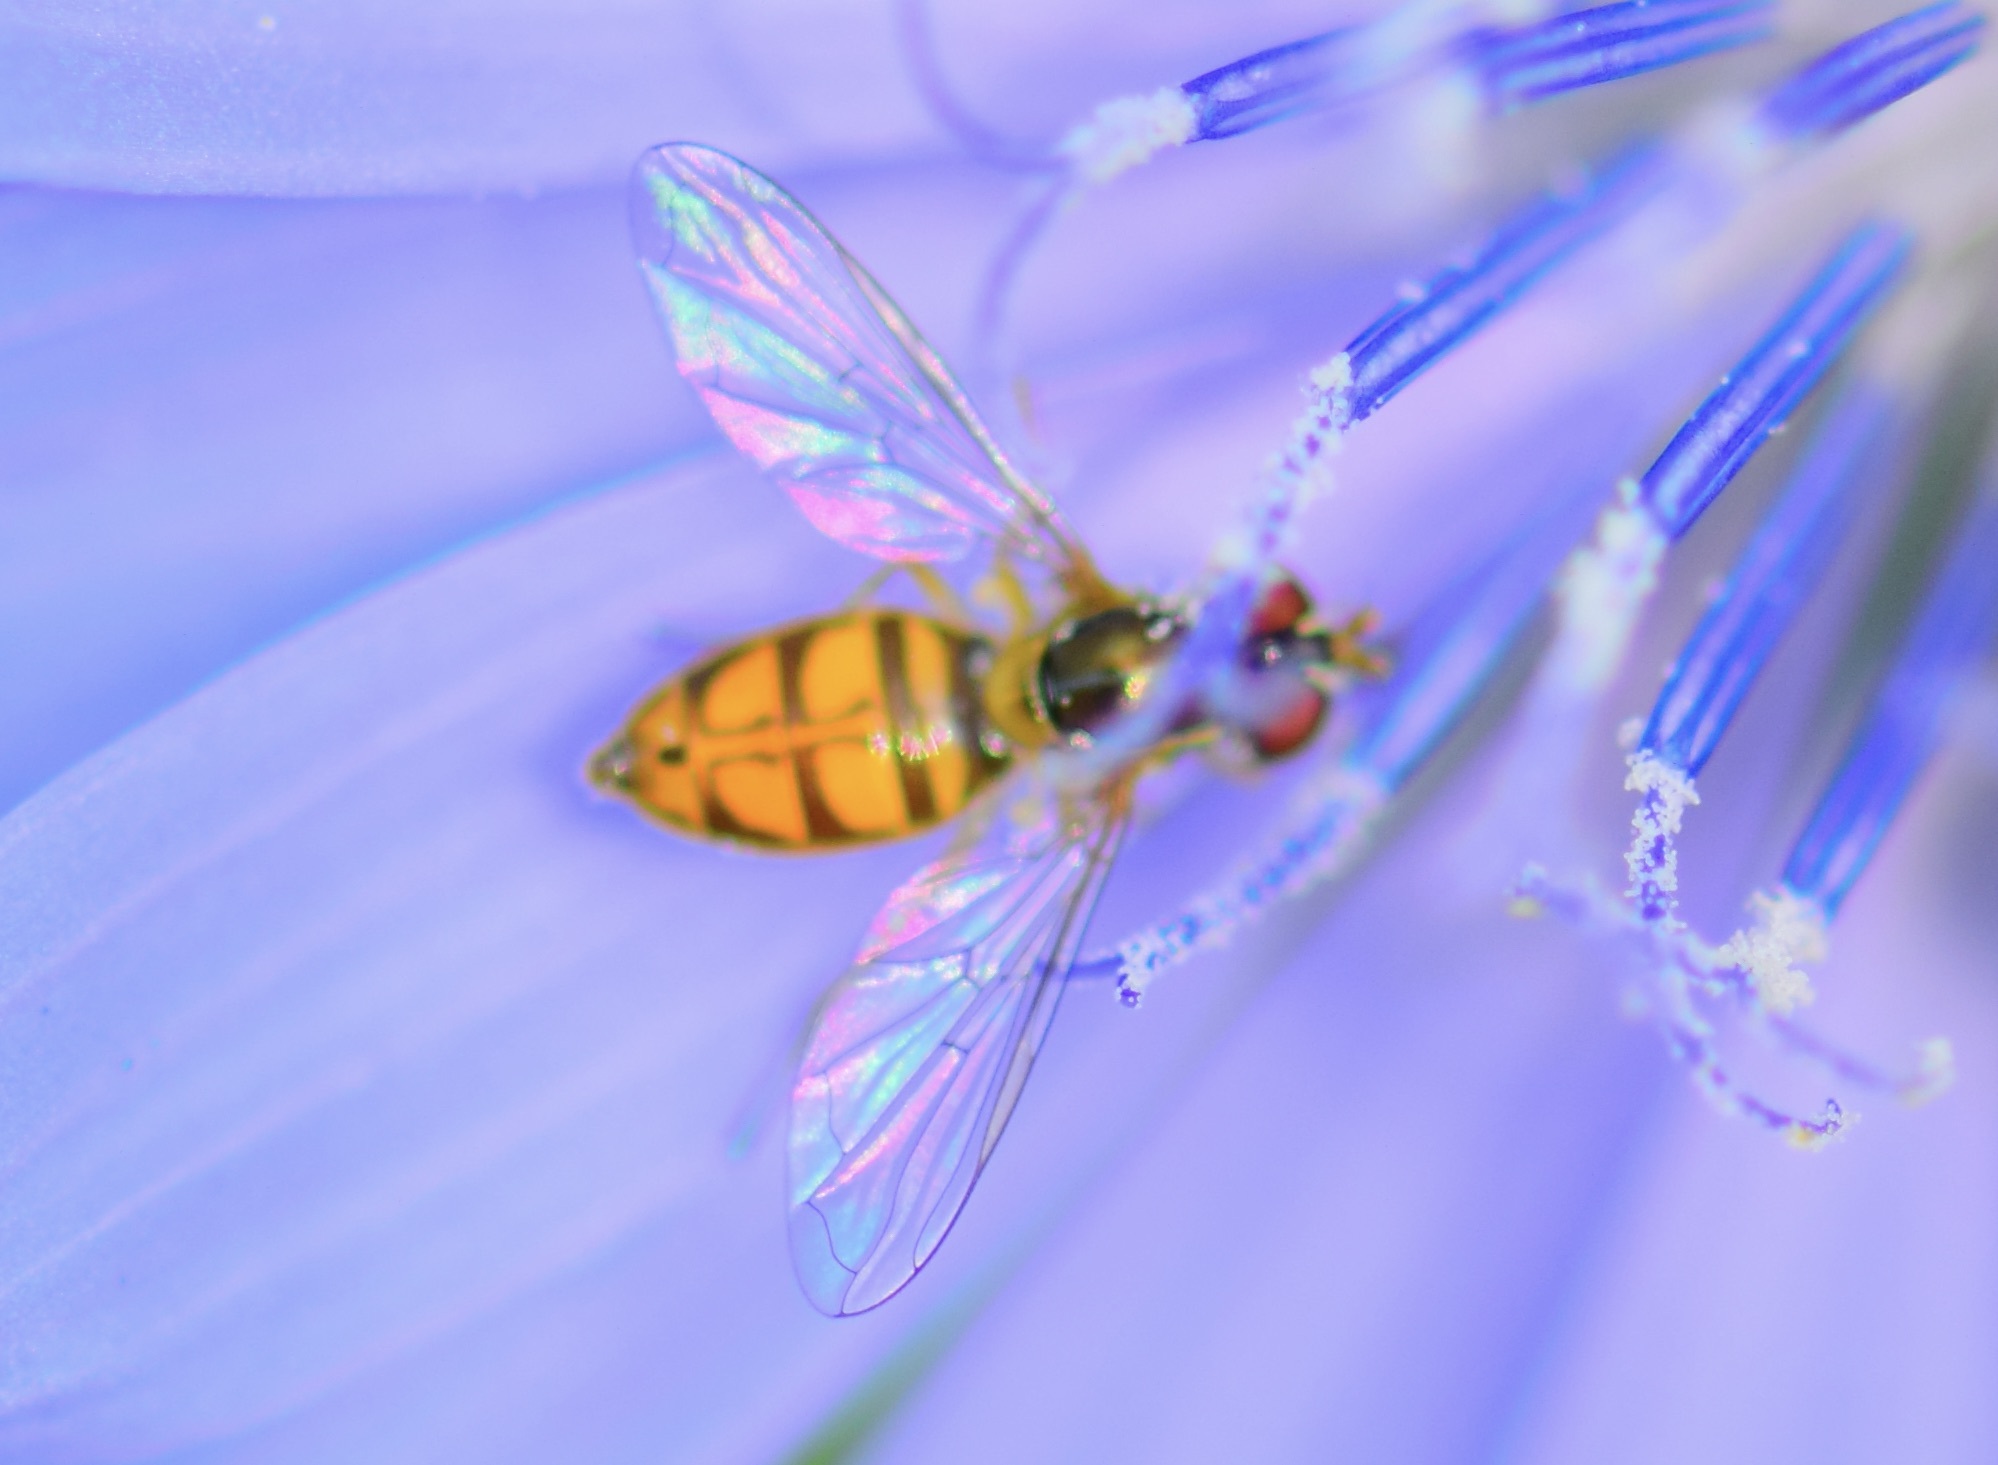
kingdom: Animalia
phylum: Arthropoda
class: Insecta
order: Diptera
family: Syrphidae
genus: Toxomerus
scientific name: Toxomerus marginatus
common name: Syrphid fly
